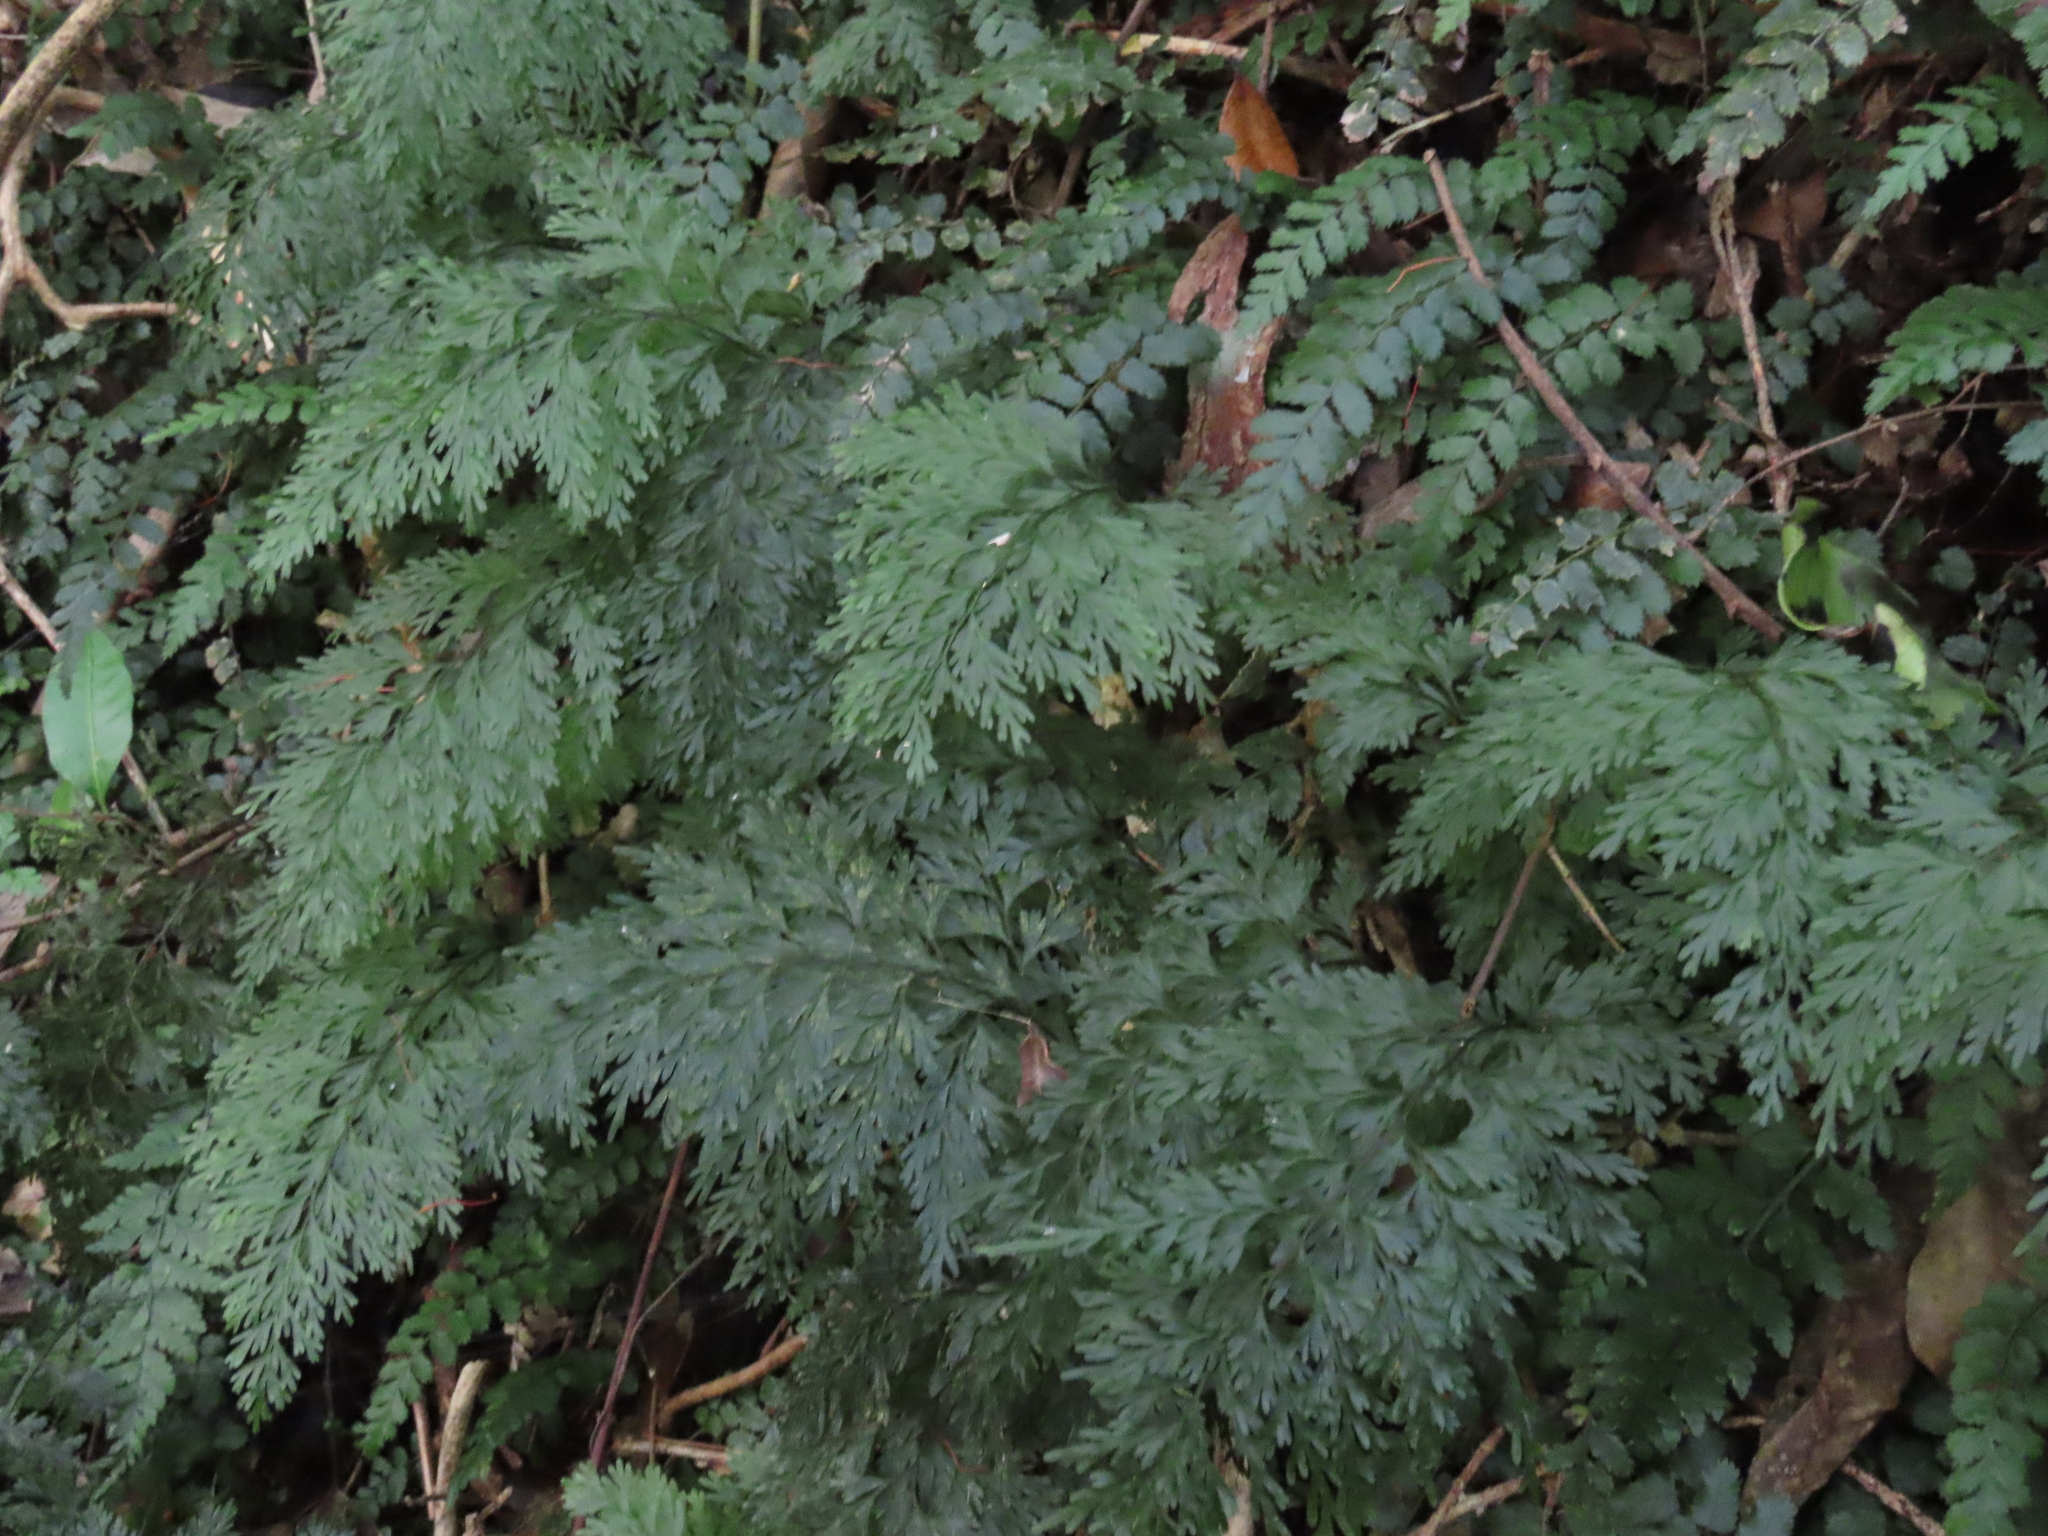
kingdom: Plantae
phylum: Tracheophyta
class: Polypodiopsida
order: Hymenophyllales
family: Hymenophyllaceae
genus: Hymenophyllum
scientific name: Hymenophyllum demissum
